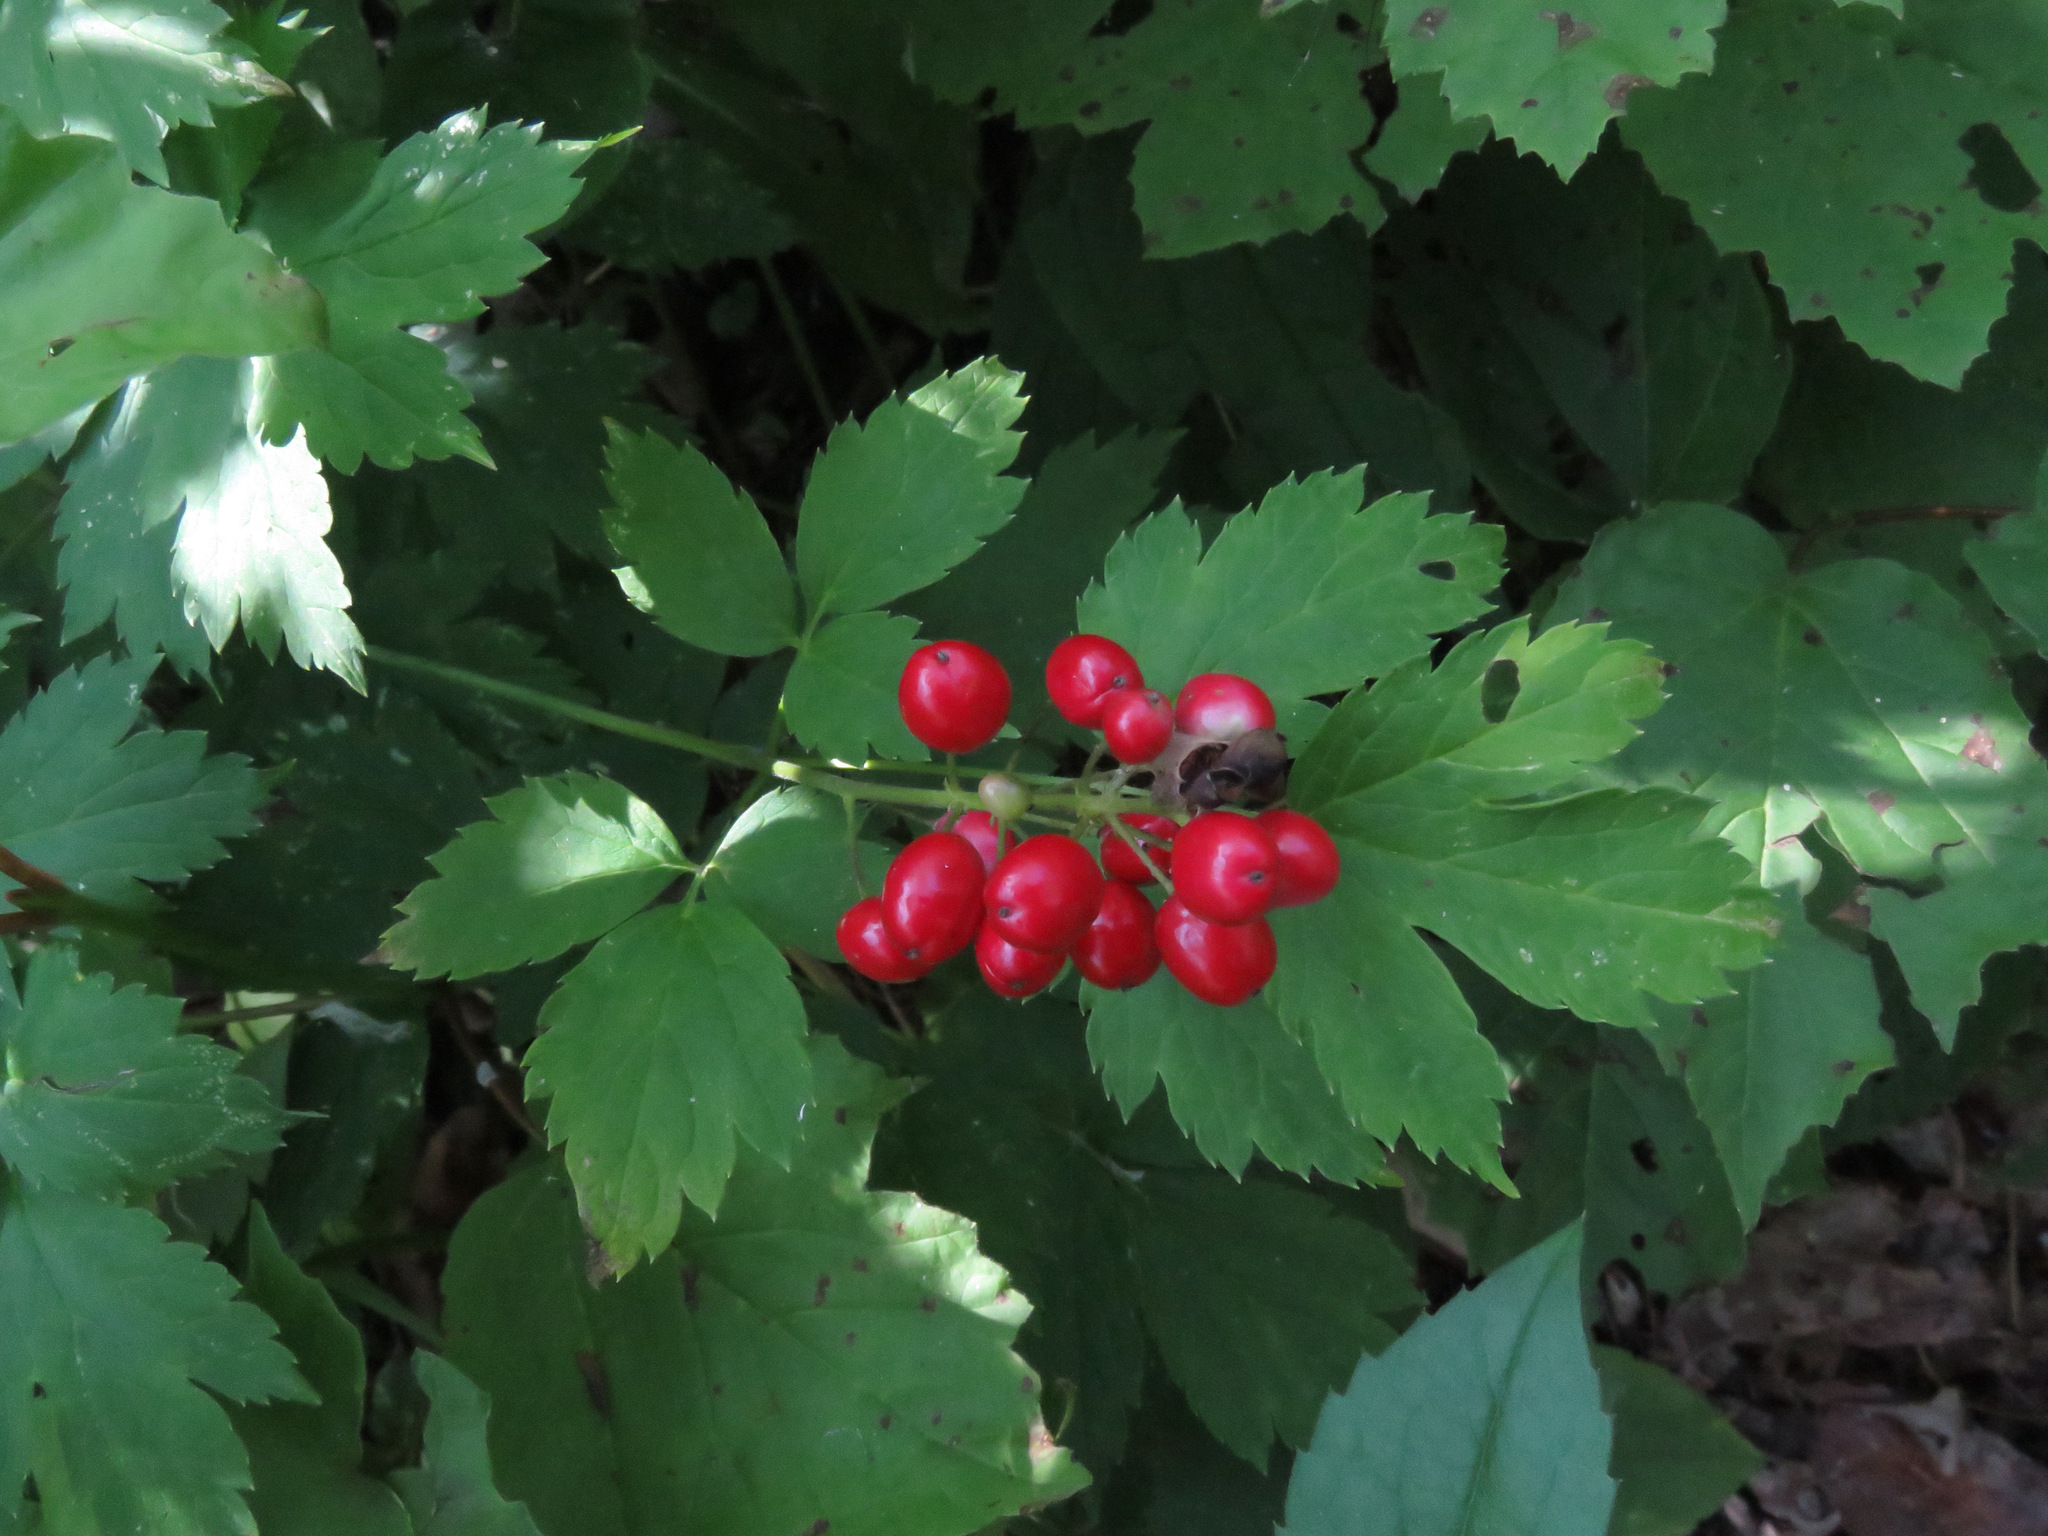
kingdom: Plantae
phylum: Tracheophyta
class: Magnoliopsida
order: Ranunculales
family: Ranunculaceae
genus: Actaea
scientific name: Actaea rubra
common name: Red baneberry
